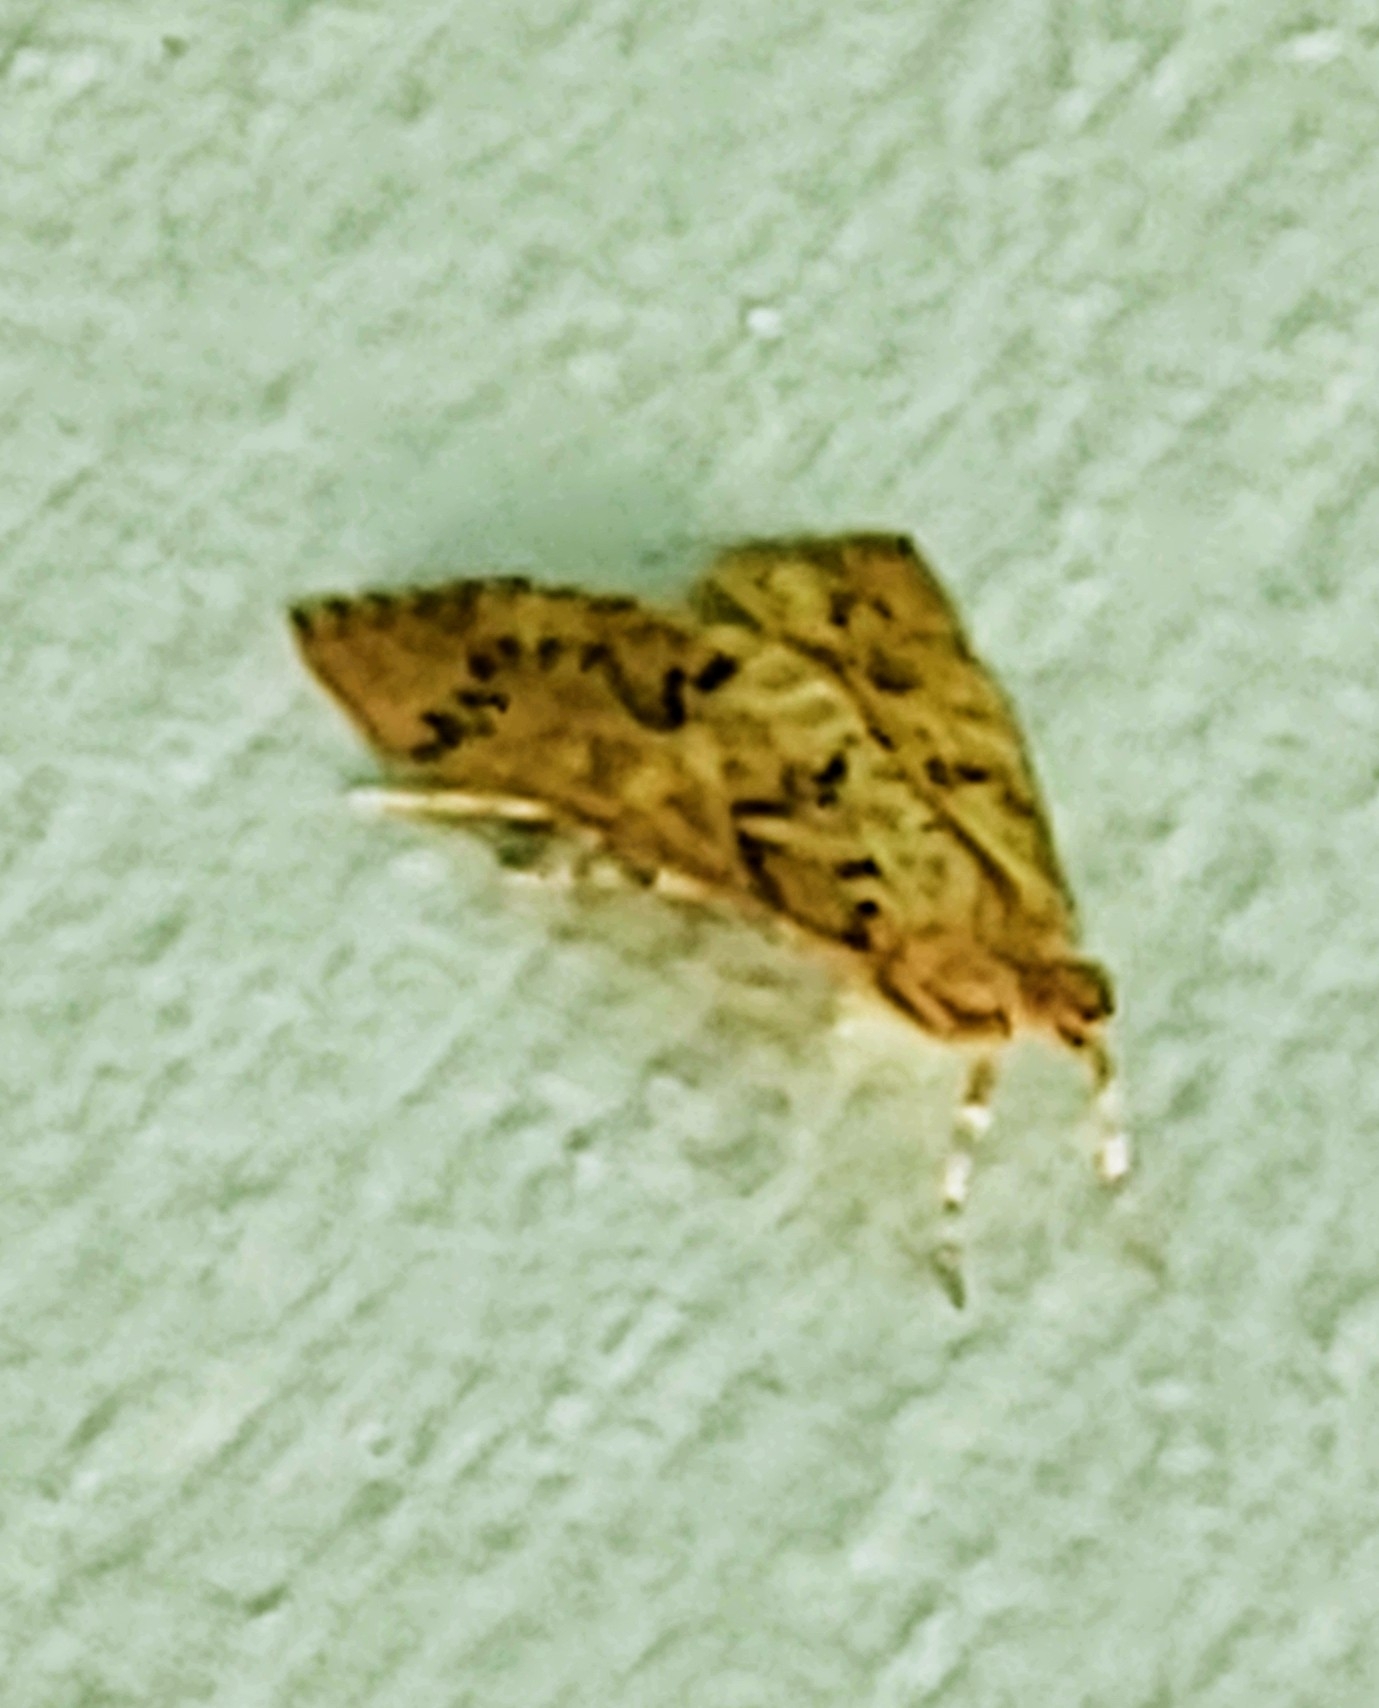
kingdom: Animalia
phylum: Arthropoda
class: Insecta
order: Lepidoptera
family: Crambidae
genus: Asciodes
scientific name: Asciodes gordialis
